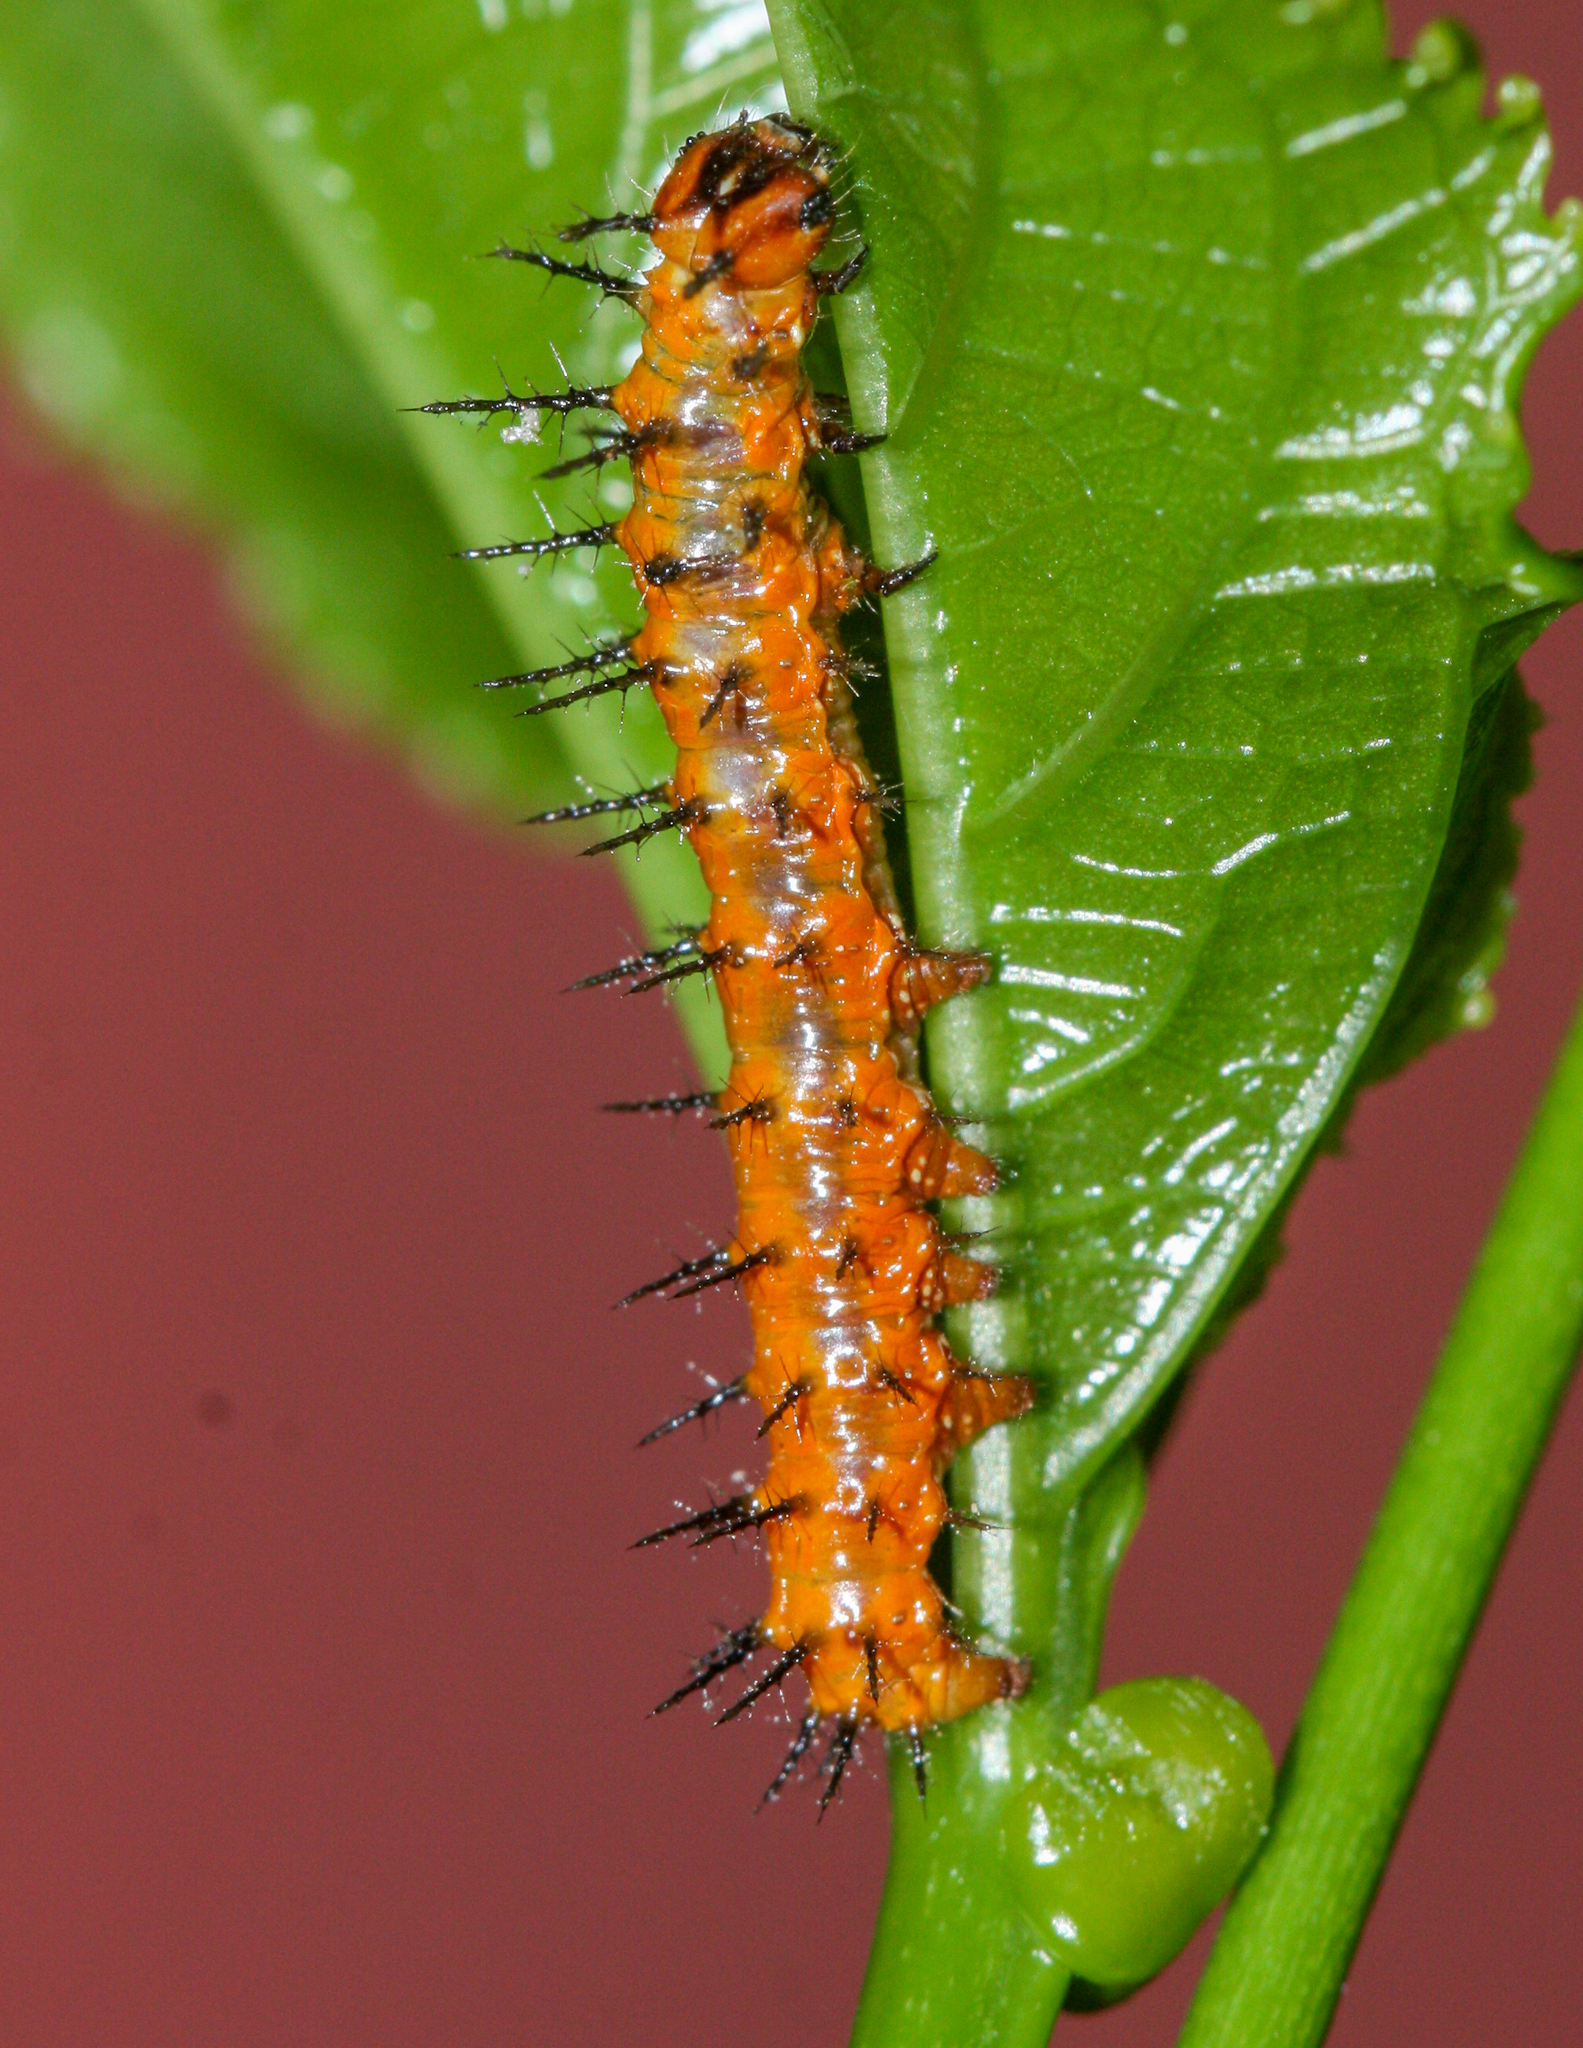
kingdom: Animalia
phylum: Arthropoda
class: Insecta
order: Lepidoptera
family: Nymphalidae
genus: Dione
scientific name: Dione vanillae
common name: Gulf fritillary
